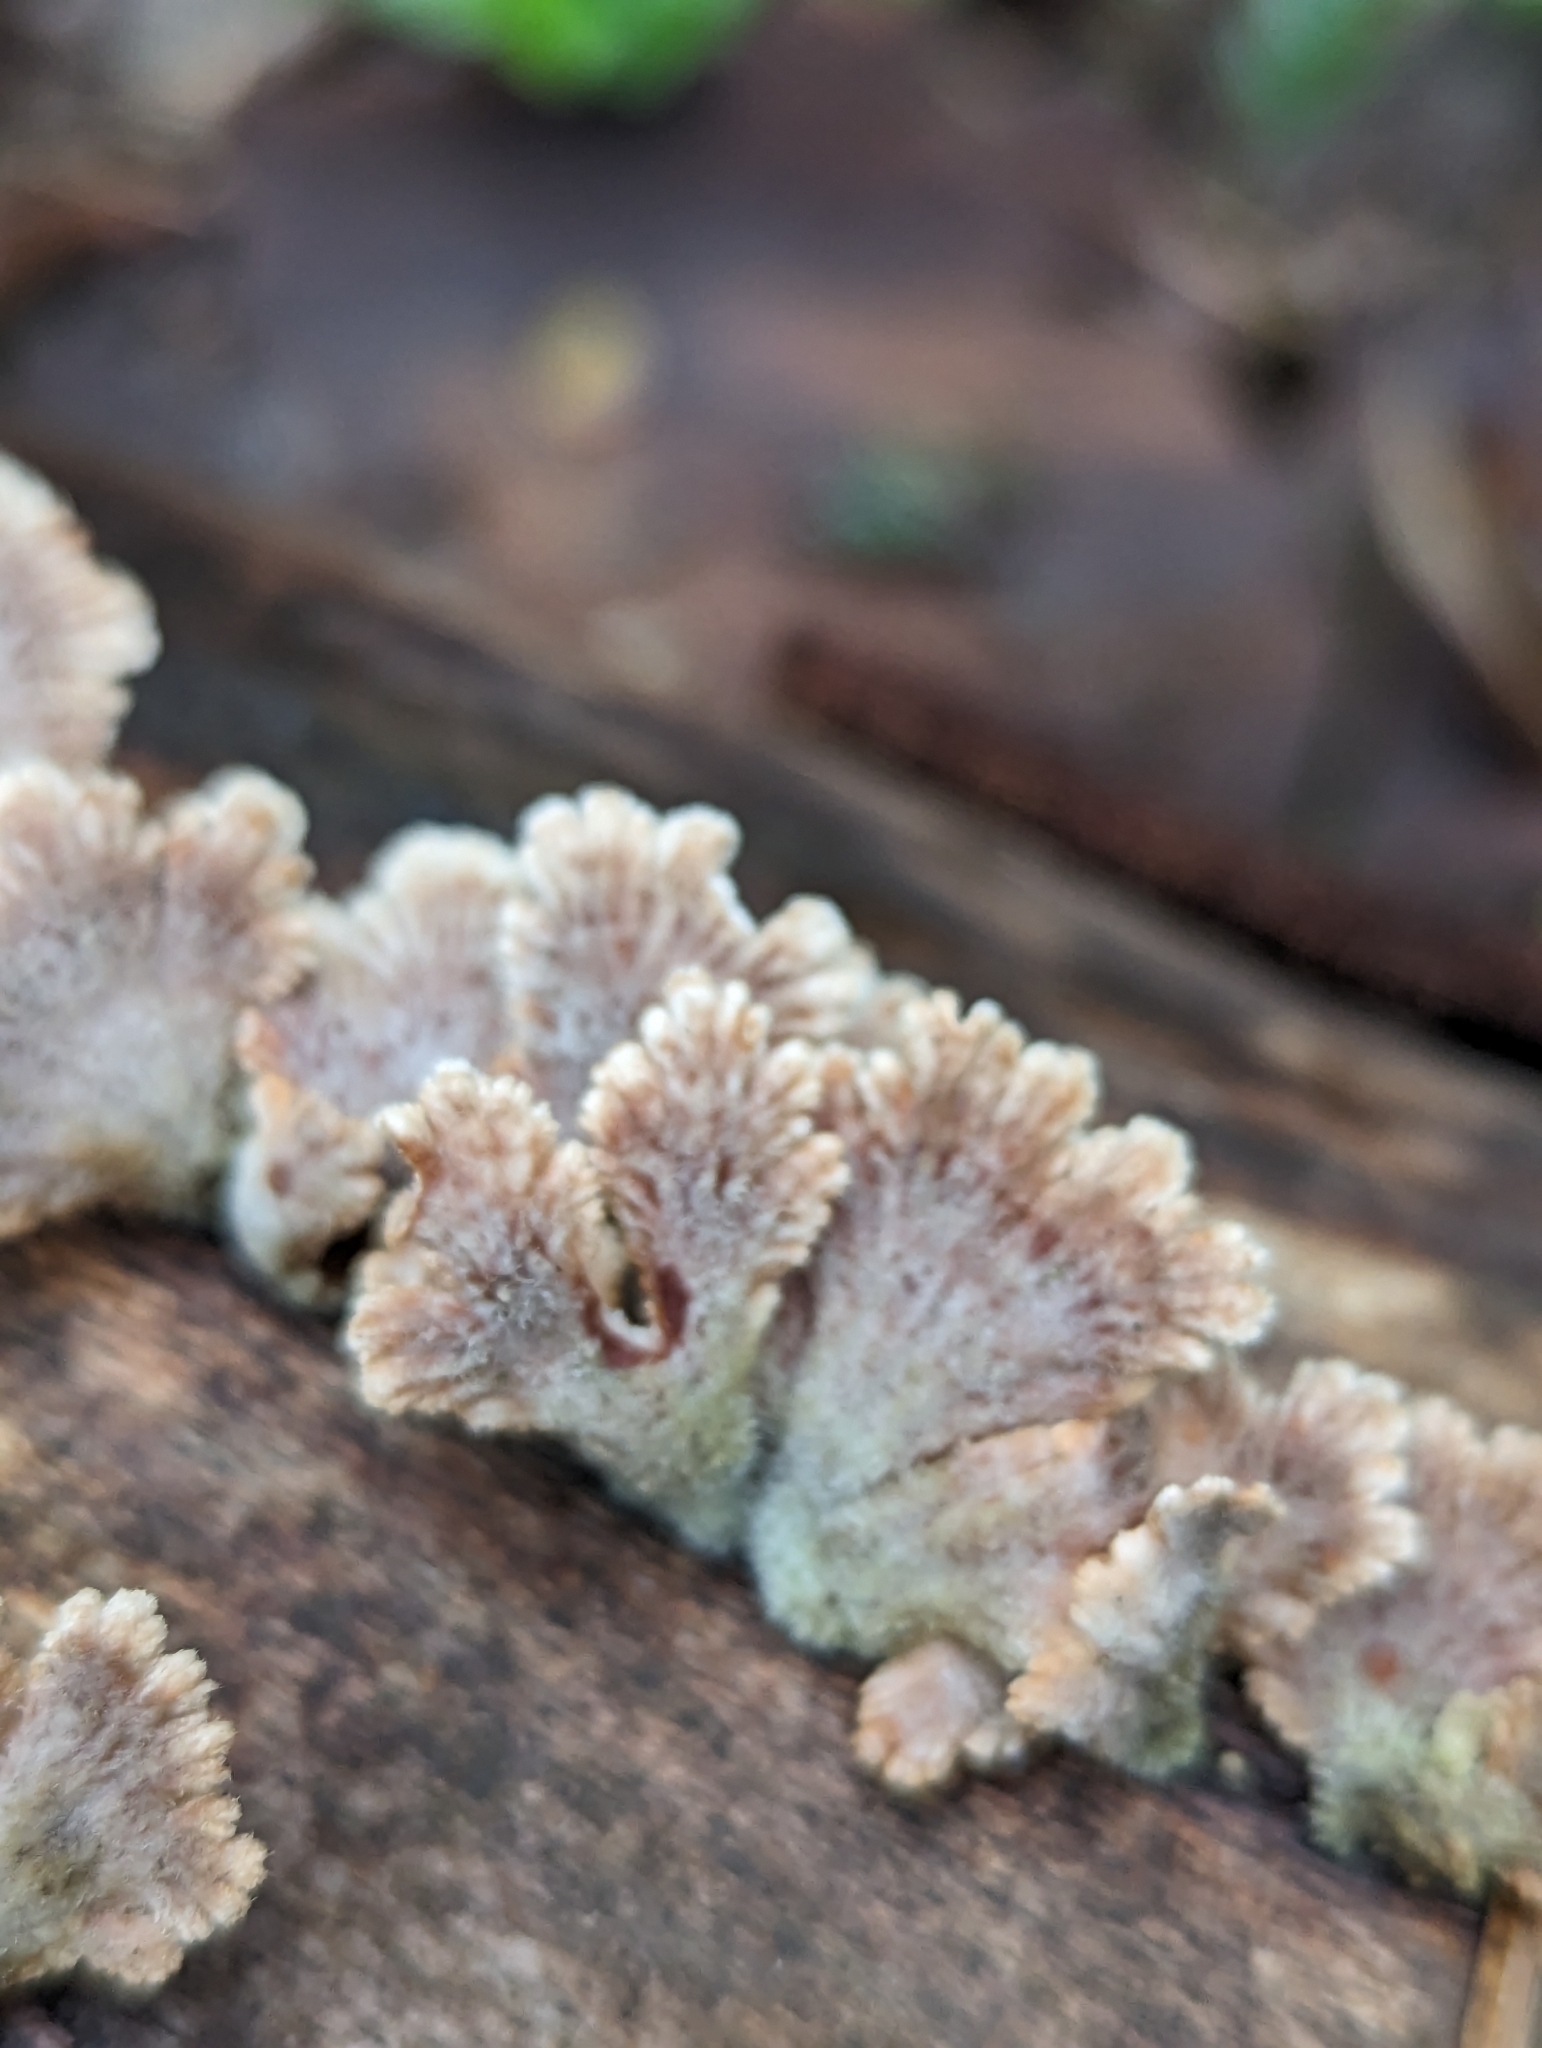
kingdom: Fungi
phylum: Basidiomycota
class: Agaricomycetes
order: Agaricales
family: Schizophyllaceae
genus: Schizophyllum
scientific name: Schizophyllum commune
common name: Common porecrust
